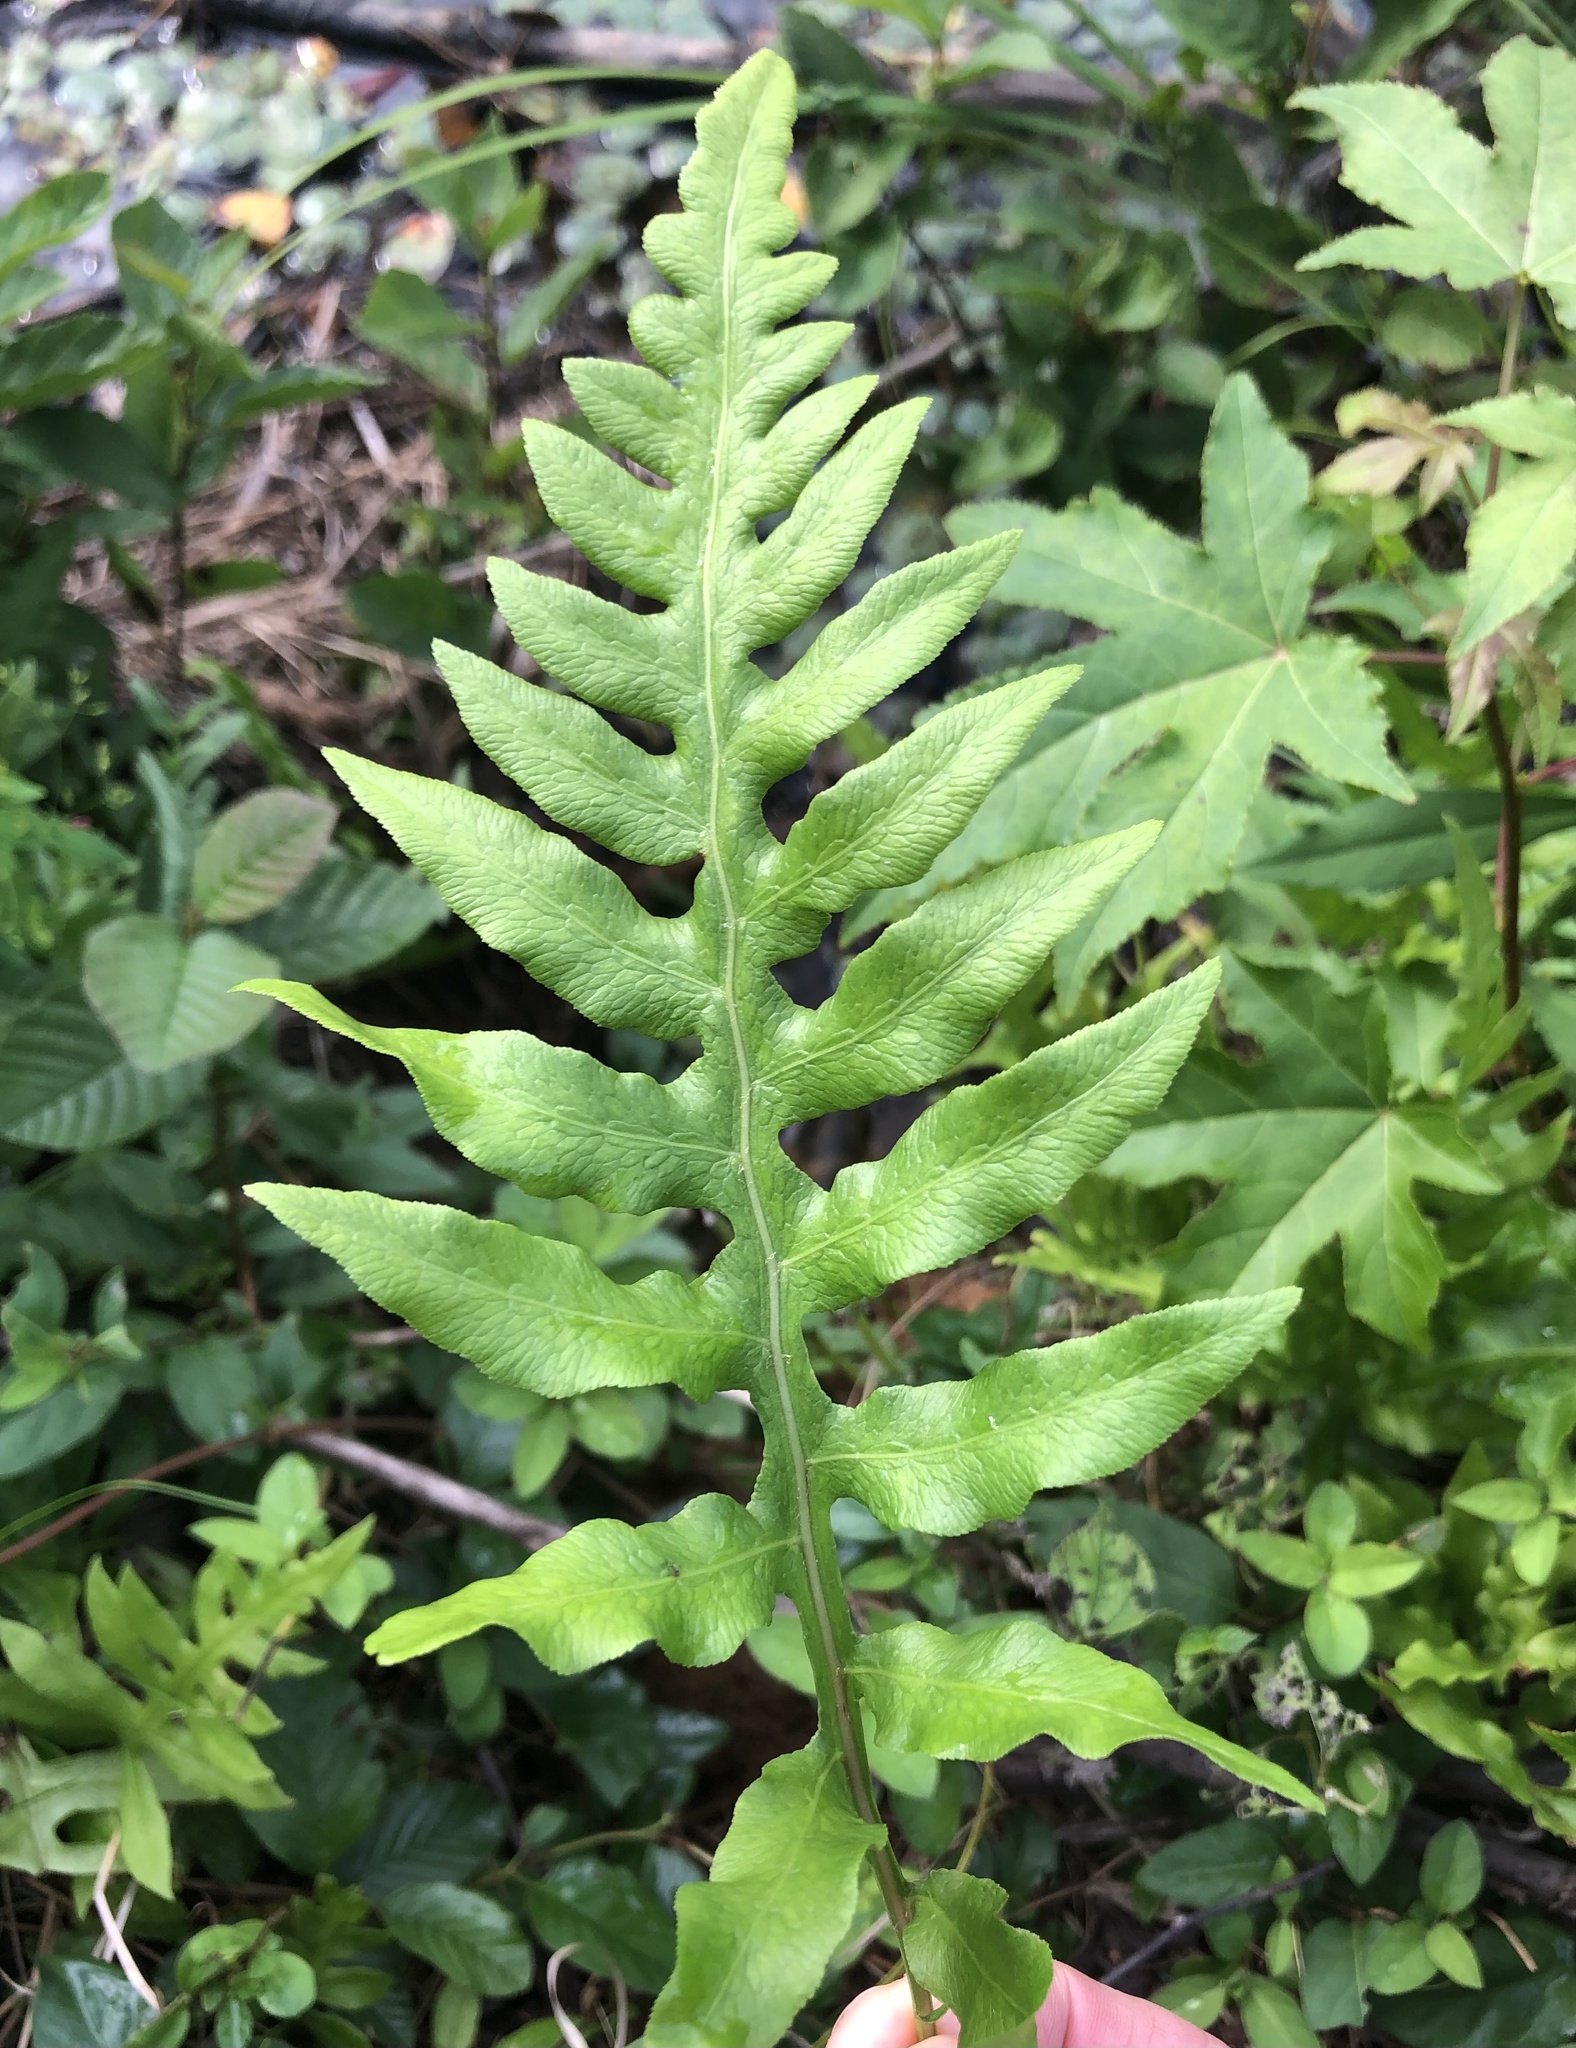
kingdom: Plantae
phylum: Tracheophyta
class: Polypodiopsida
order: Polypodiales
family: Blechnaceae
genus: Lorinseria
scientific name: Lorinseria areolata
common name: Dwarf chain fern
